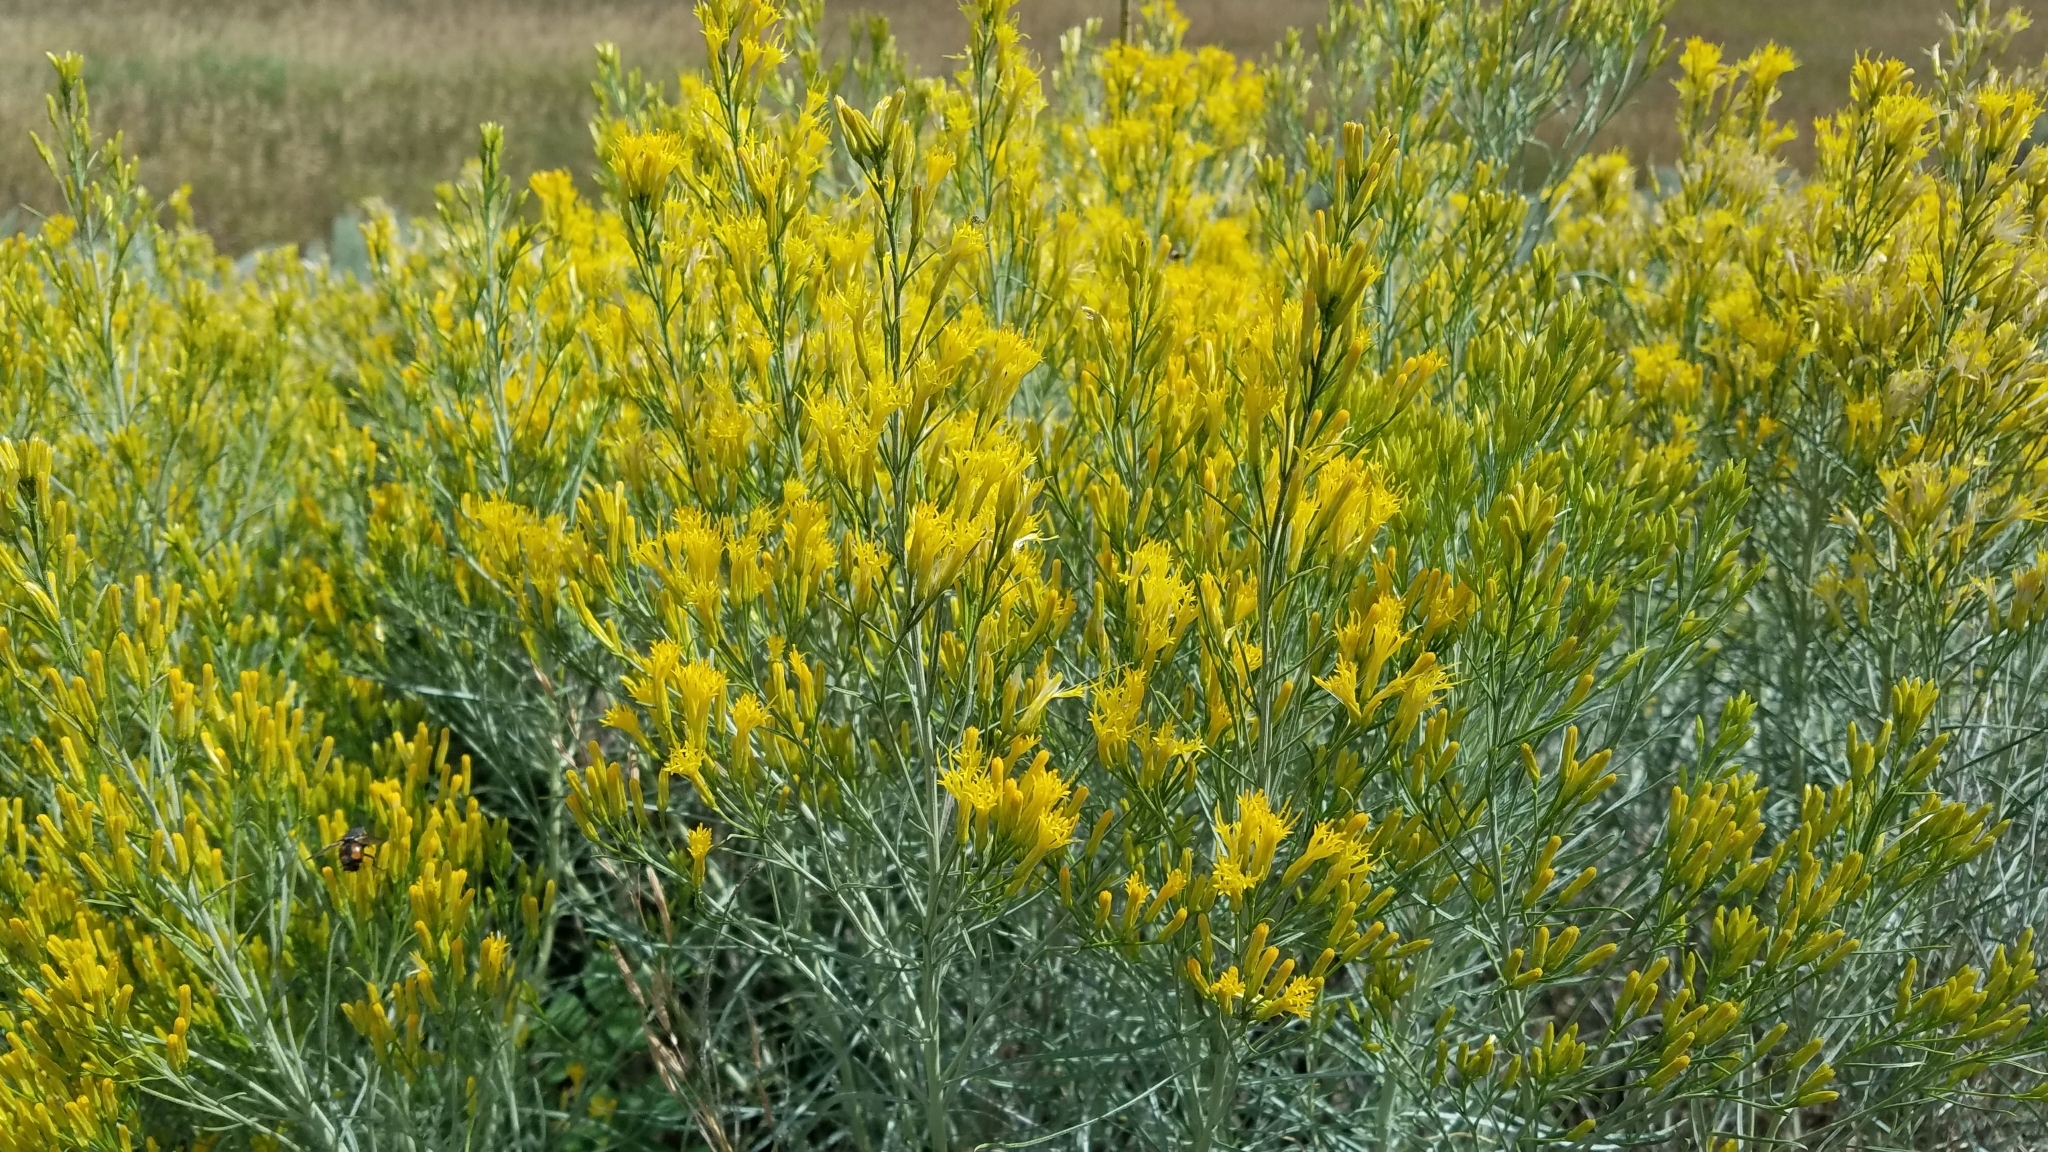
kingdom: Plantae
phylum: Tracheophyta
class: Magnoliopsida
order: Asterales
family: Asteraceae
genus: Ericameria
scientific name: Ericameria nauseosa
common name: Rubber rabbitbrush
